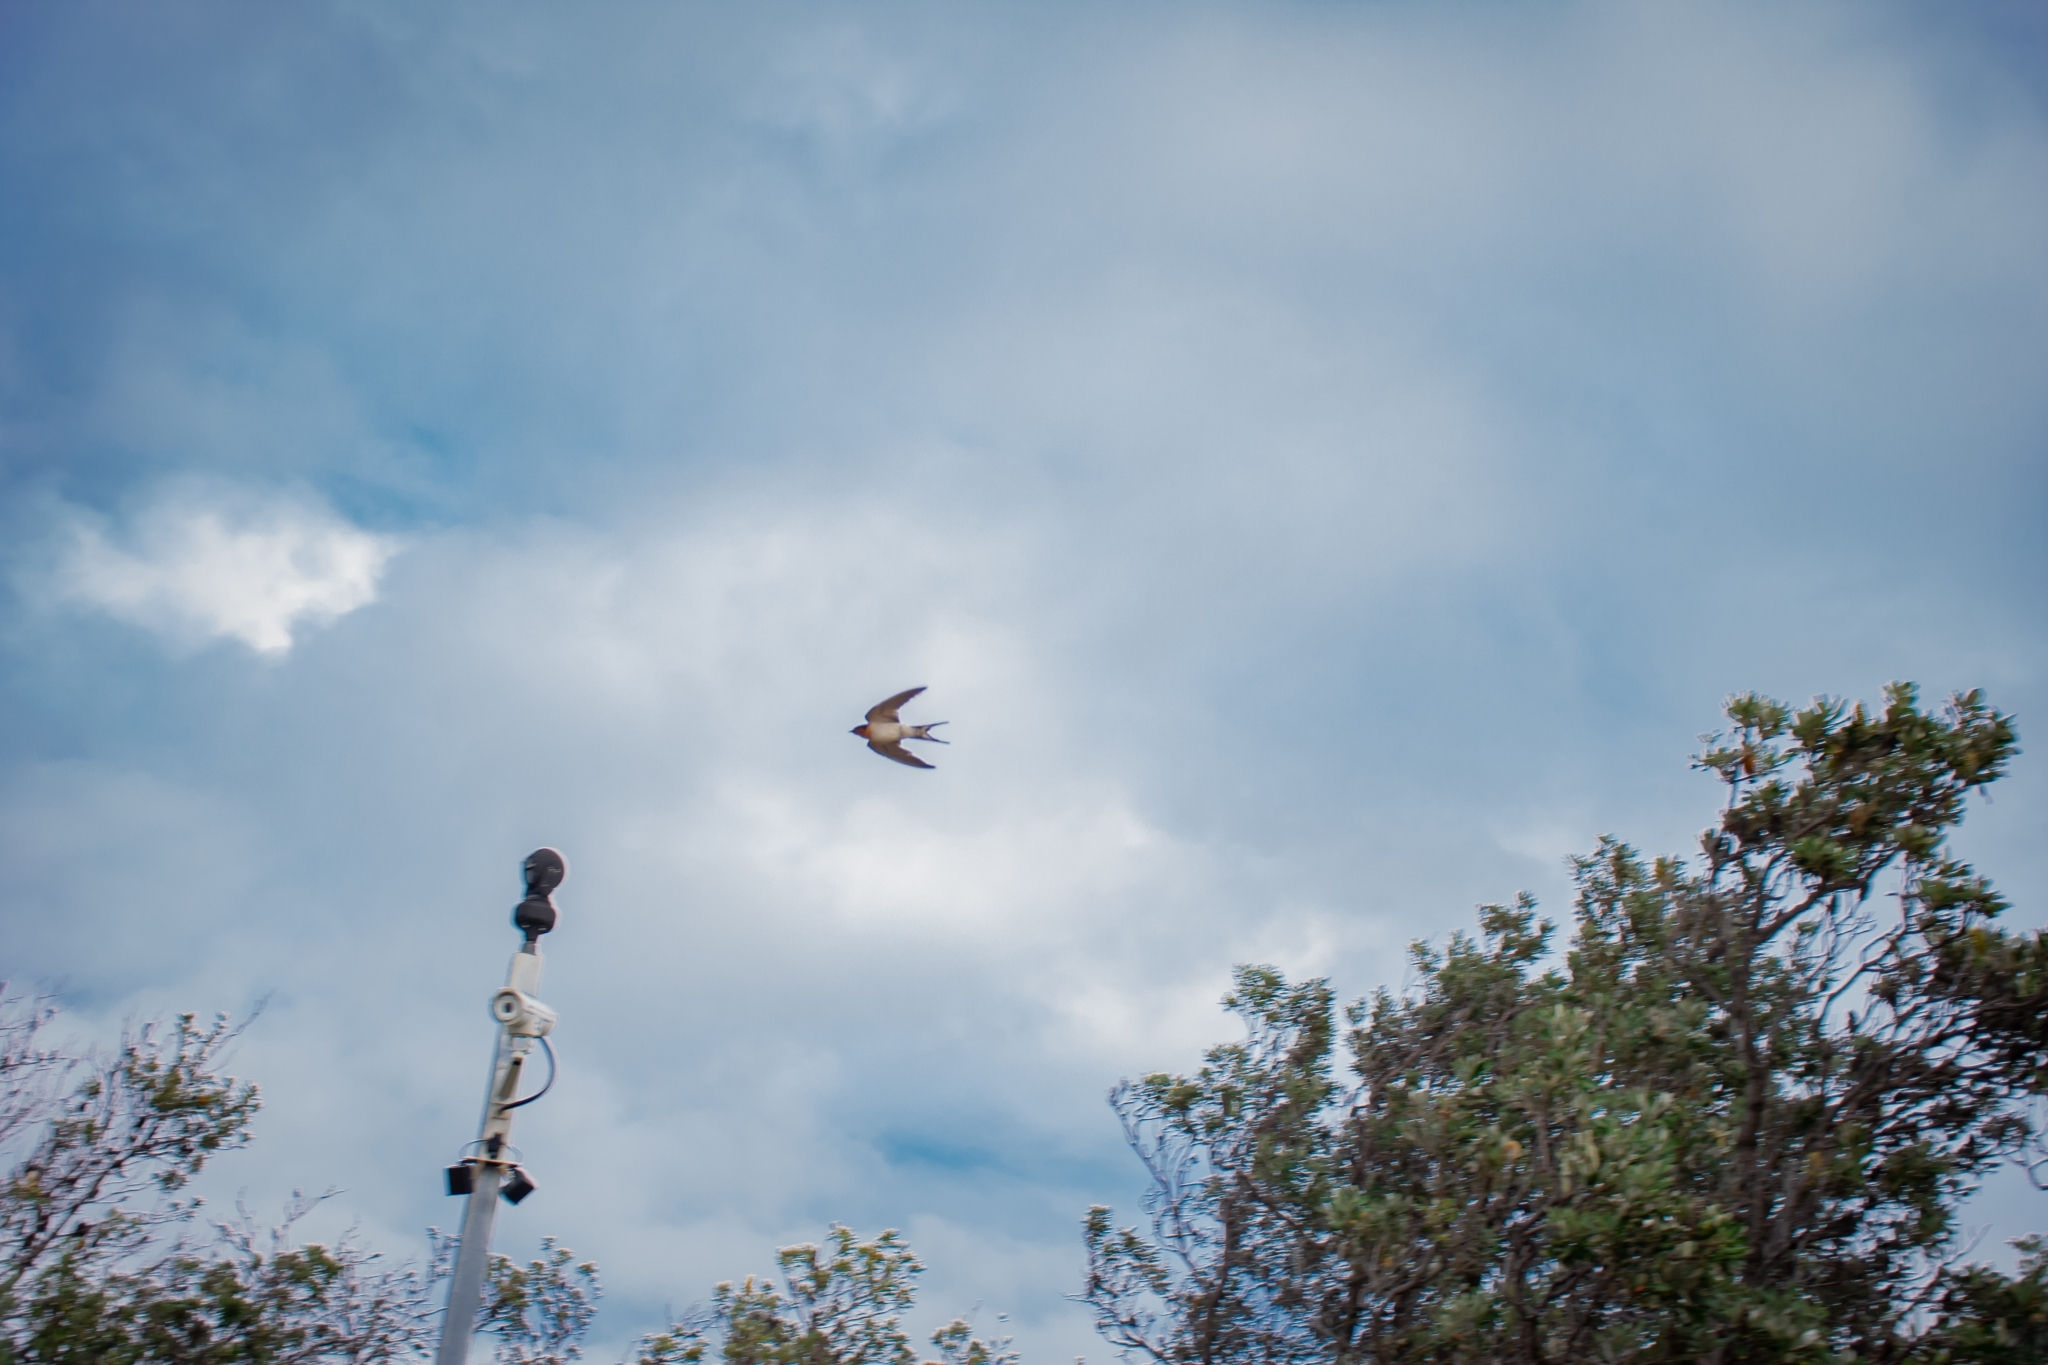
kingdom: Animalia
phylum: Chordata
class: Aves
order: Passeriformes
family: Hirundinidae
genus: Hirundo
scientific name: Hirundo neoxena
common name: Welcome swallow
